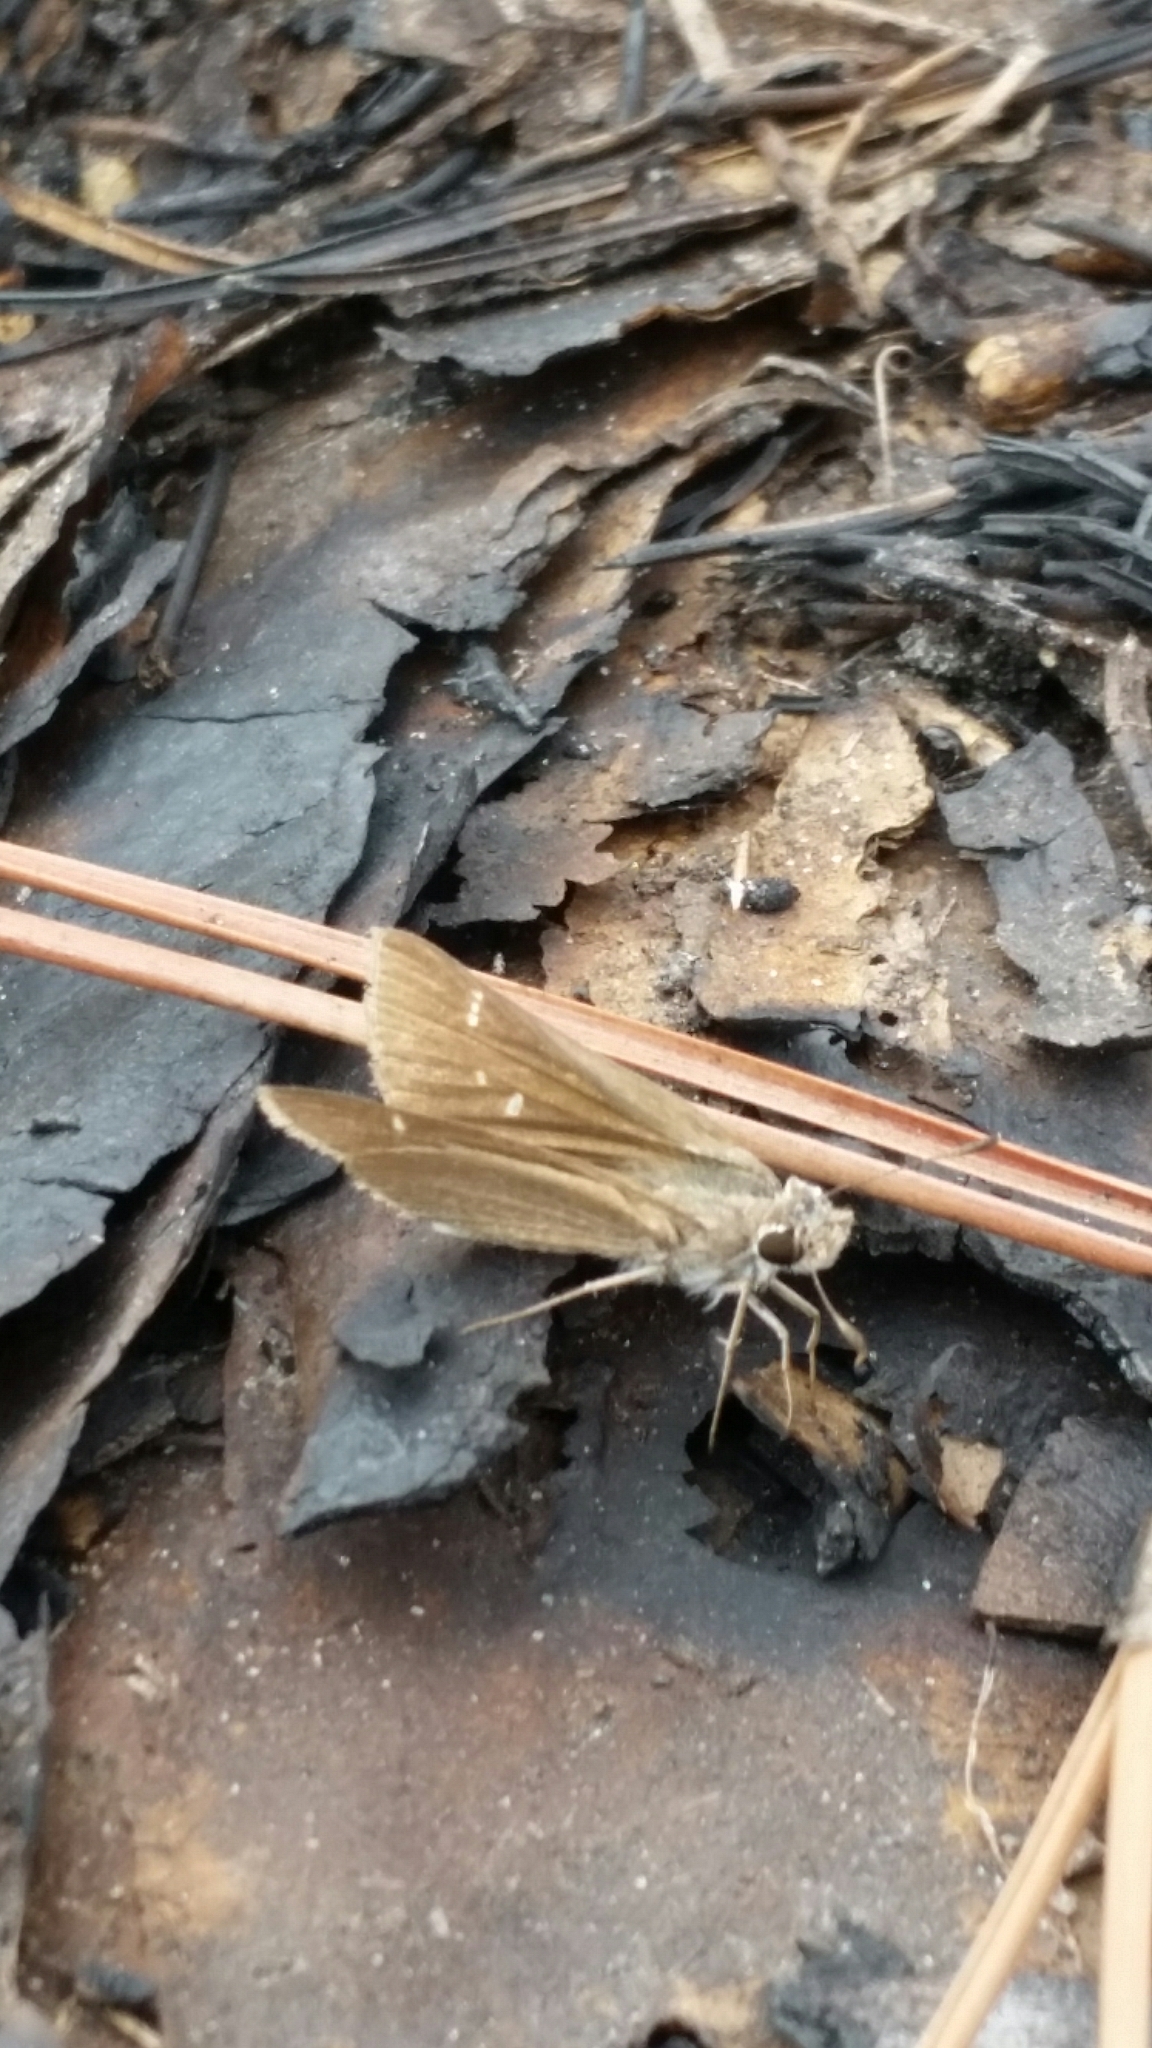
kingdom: Animalia
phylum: Arthropoda
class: Insecta
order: Lepidoptera
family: Hesperiidae
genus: Lerodea
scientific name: Lerodea eufala
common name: Eufala skipper
